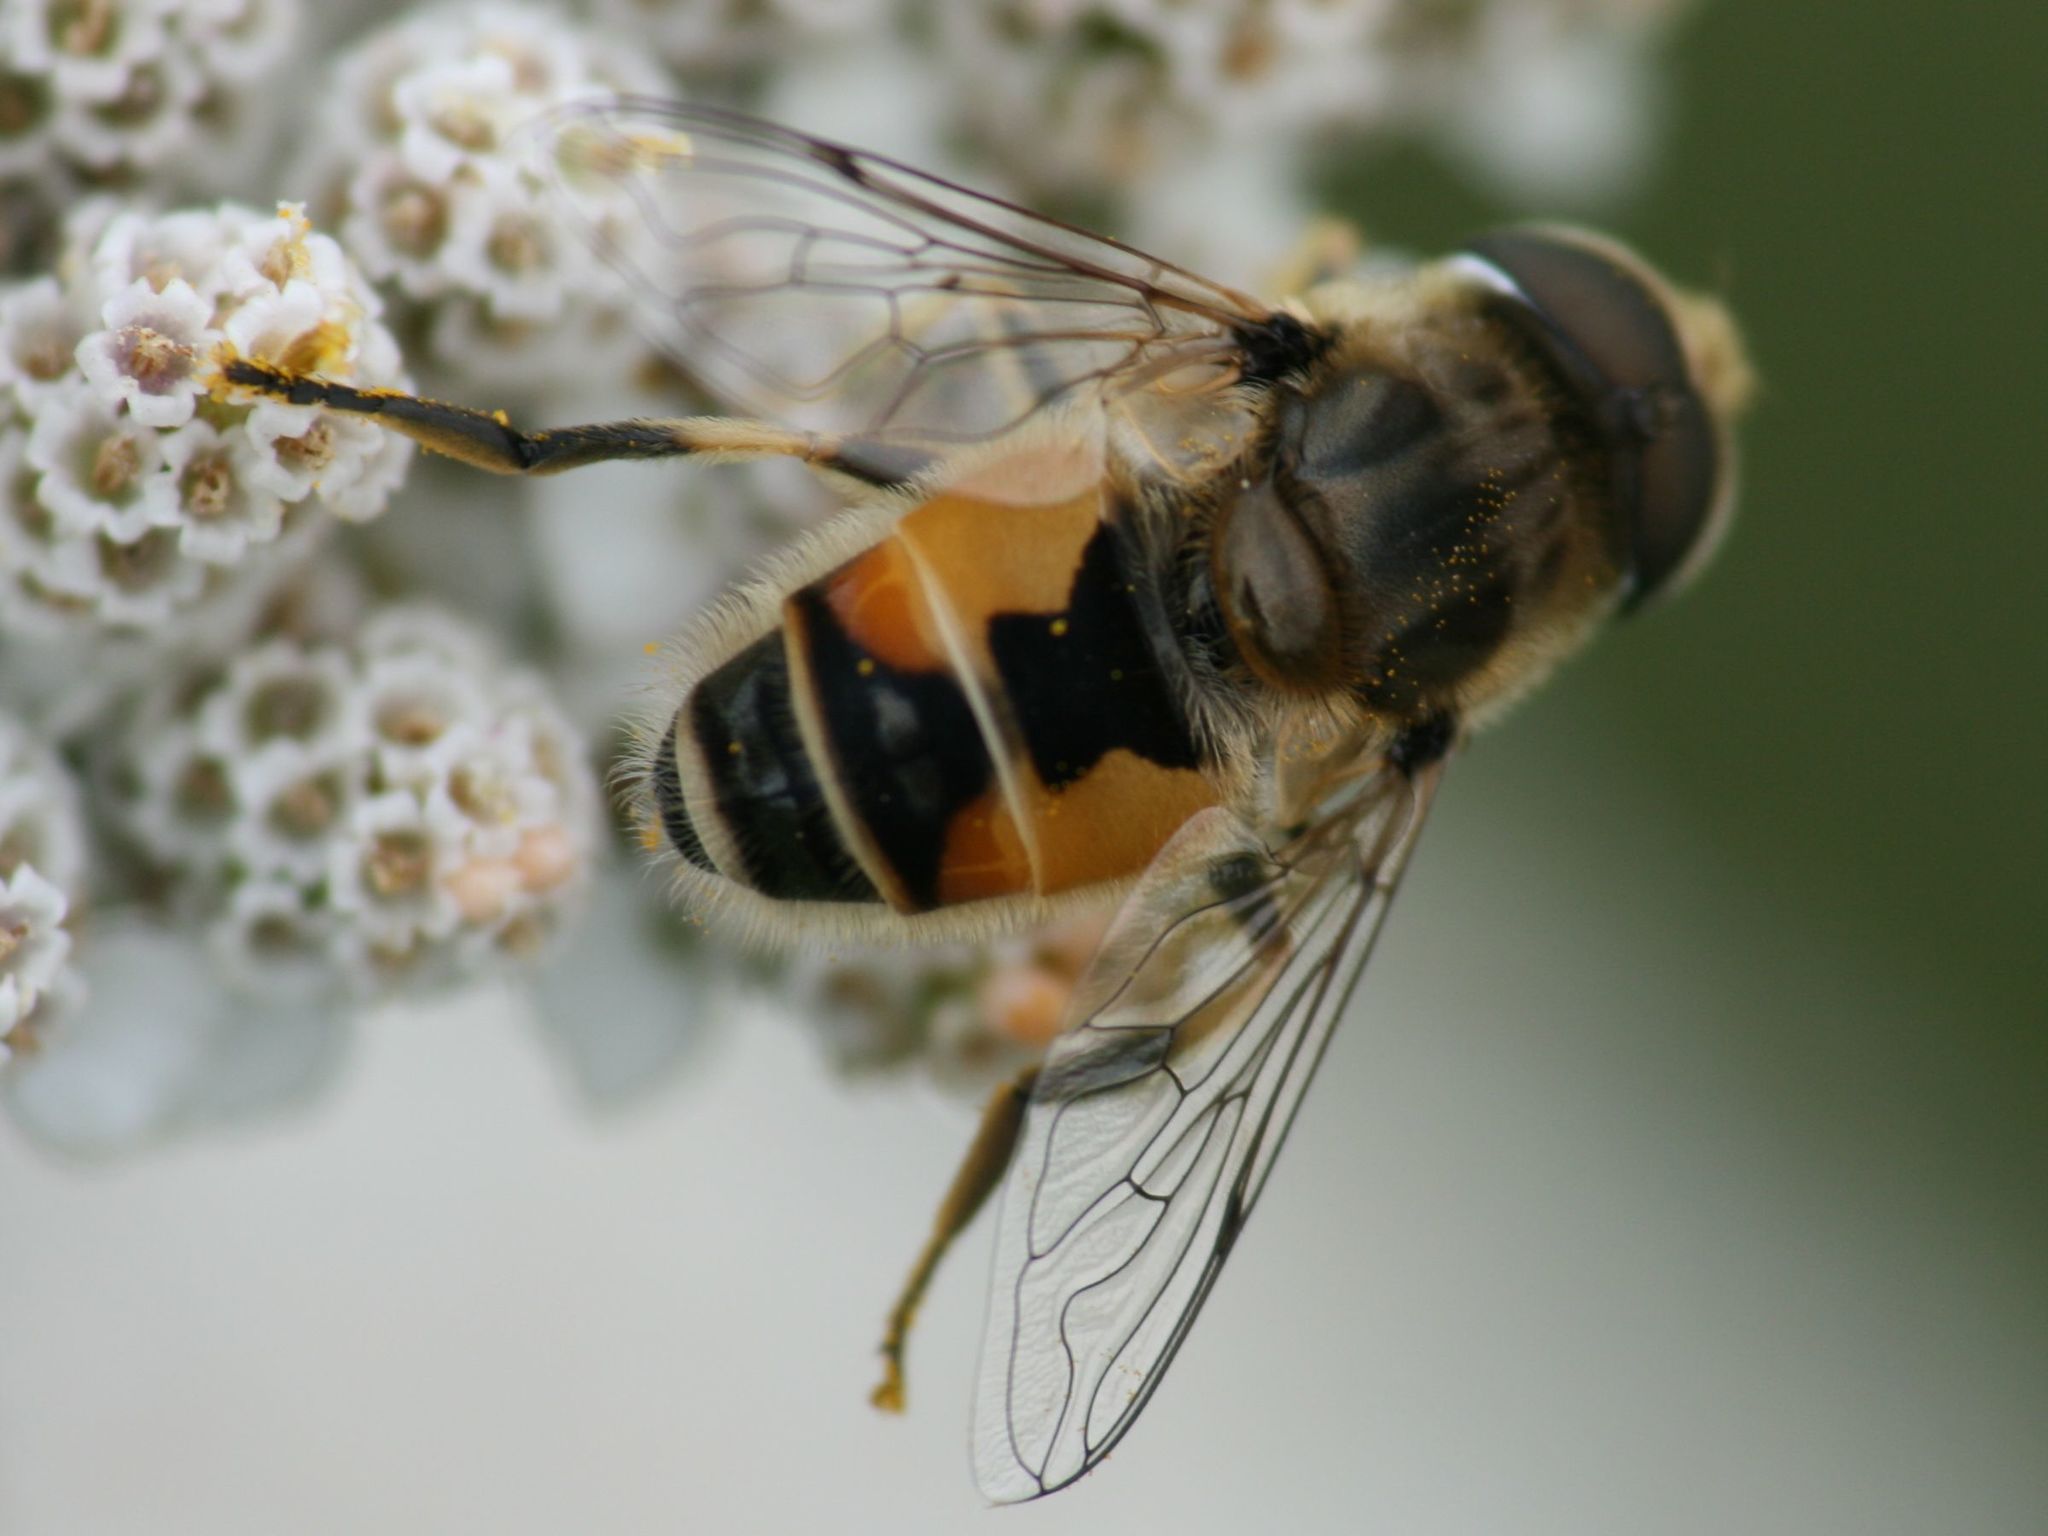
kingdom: Animalia
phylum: Arthropoda
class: Insecta
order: Diptera
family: Syrphidae
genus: Eristalis
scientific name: Eristalis arbustorum
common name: Hover fly
